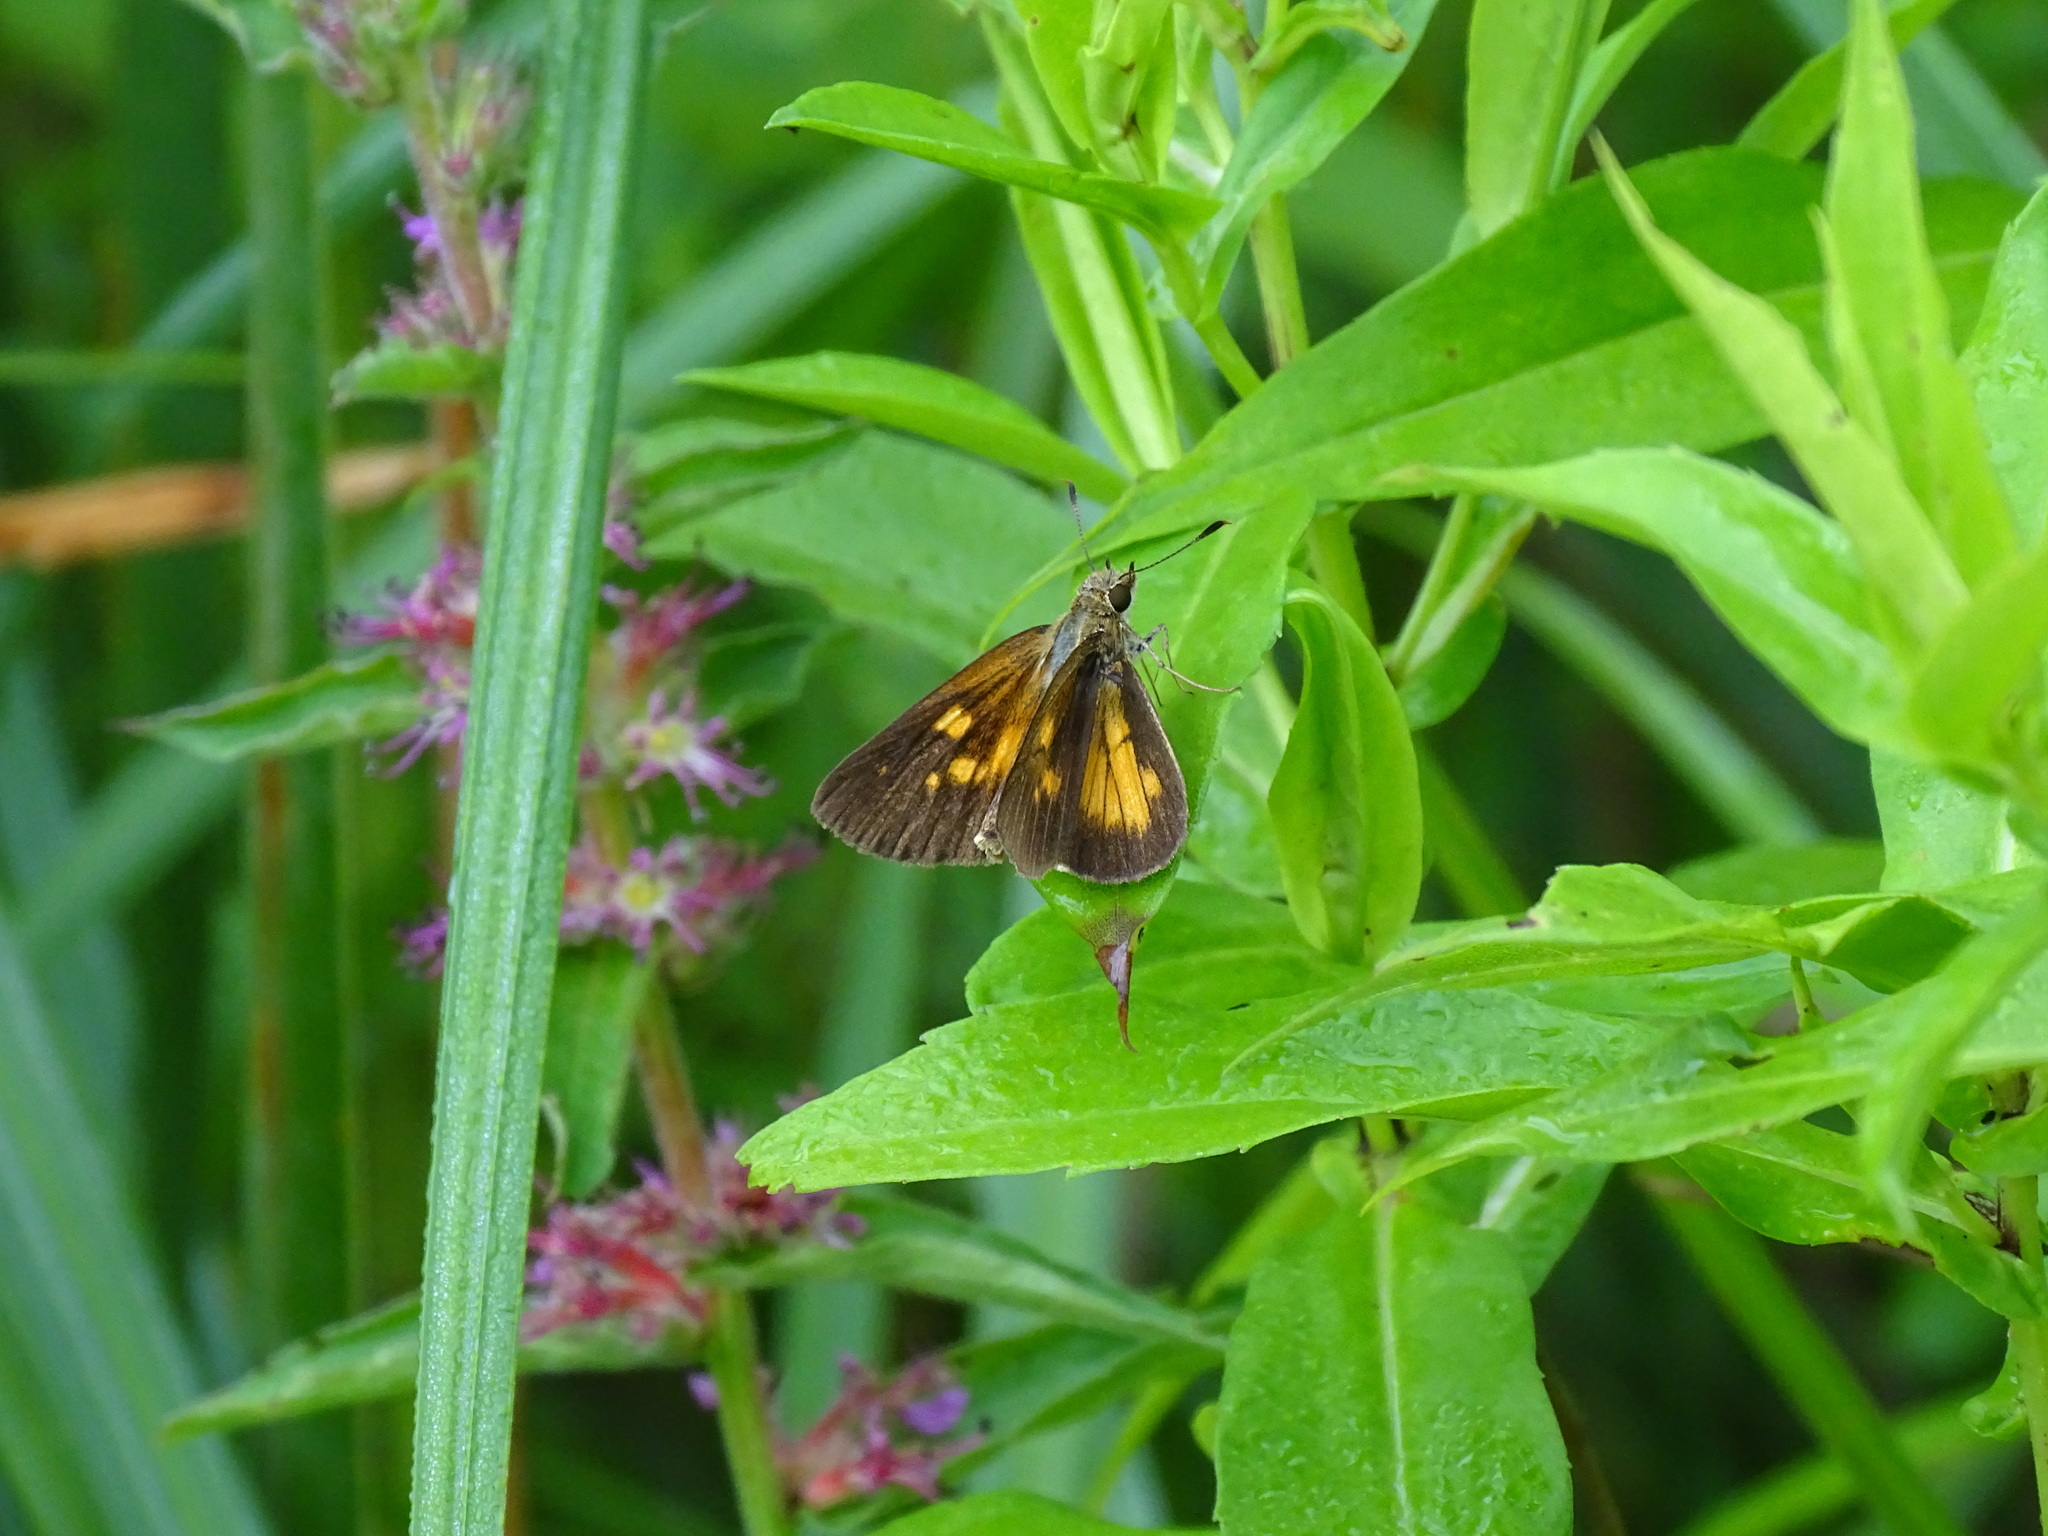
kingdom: Animalia
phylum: Arthropoda
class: Insecta
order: Lepidoptera
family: Hesperiidae
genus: Poanes
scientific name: Poanes viator
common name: Broad-winged skipper
